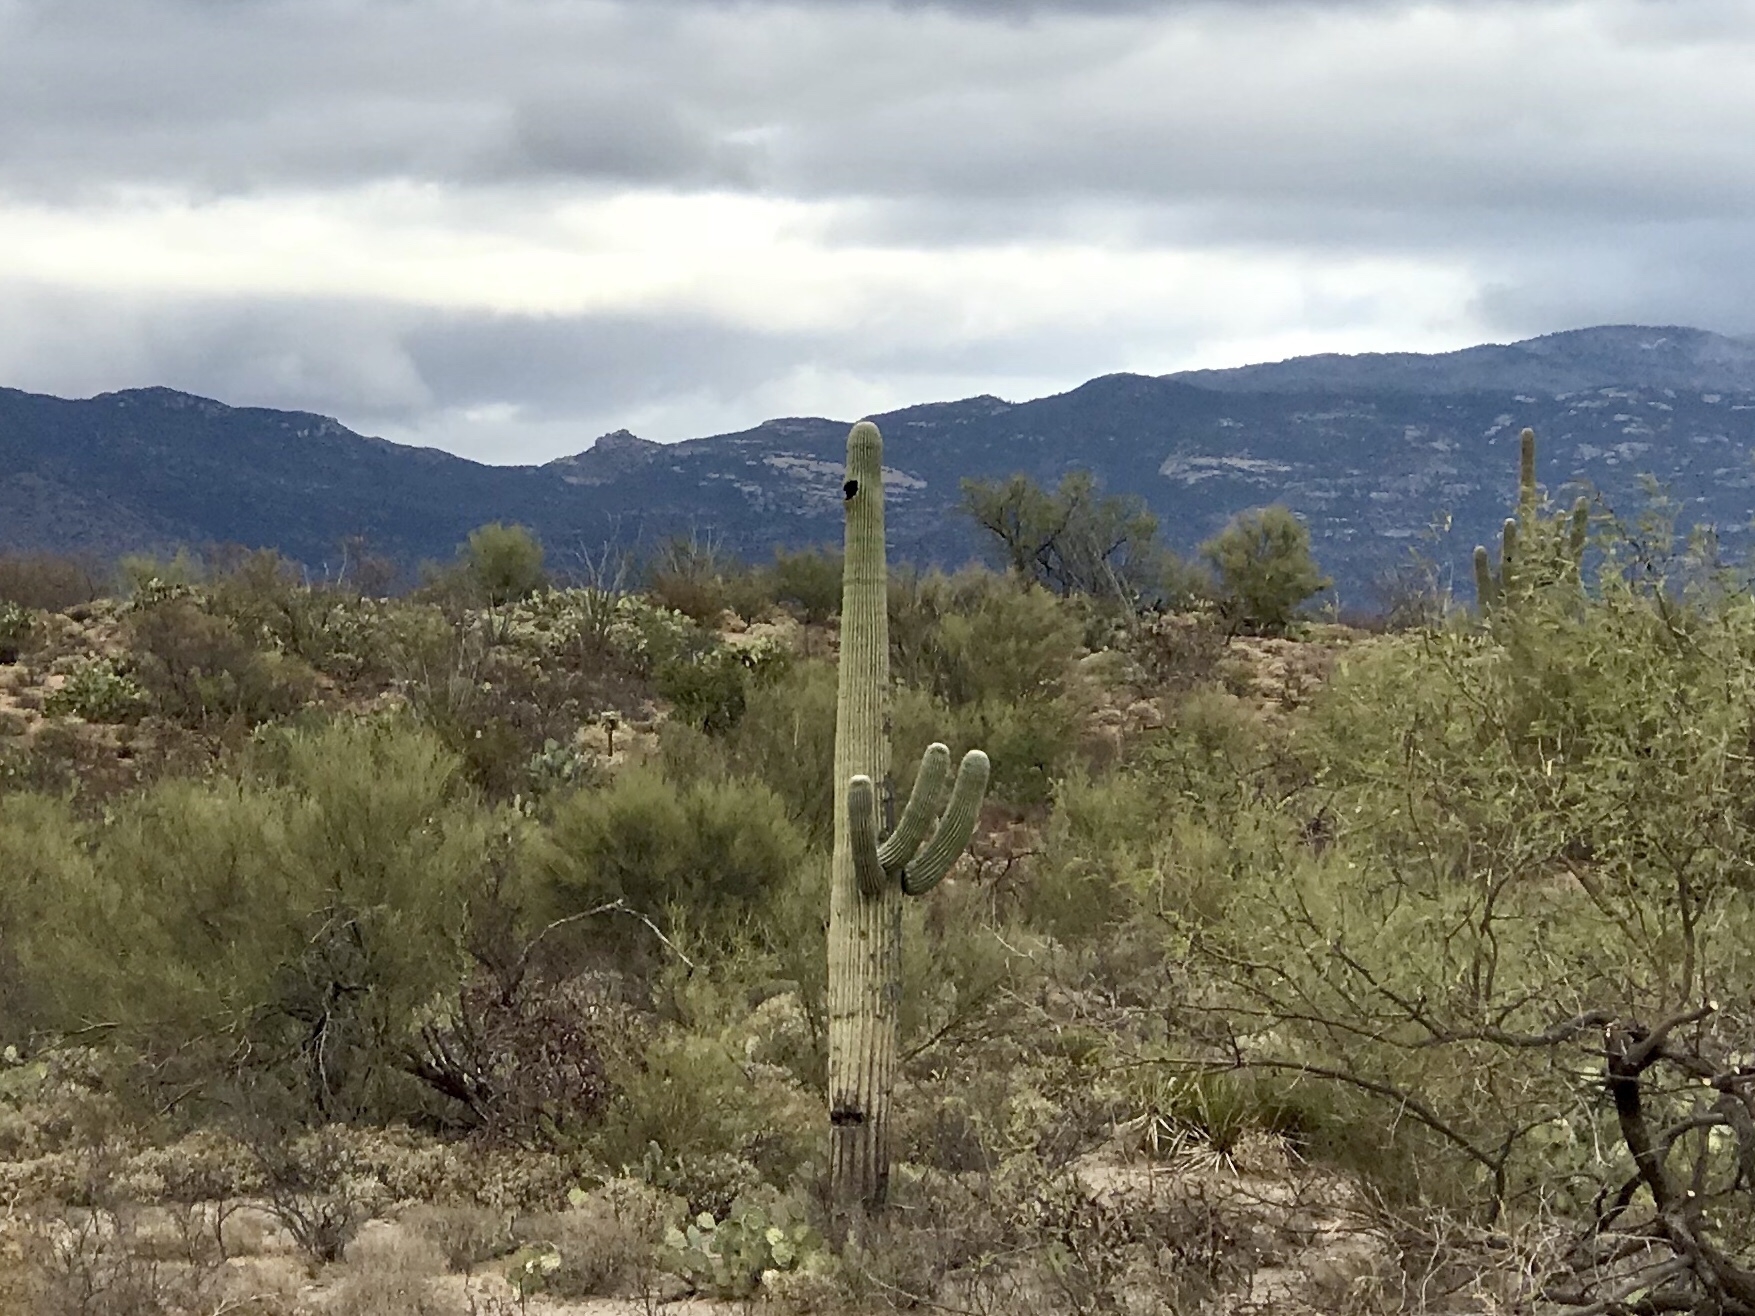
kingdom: Plantae
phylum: Tracheophyta
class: Magnoliopsida
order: Caryophyllales
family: Cactaceae
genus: Carnegiea
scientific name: Carnegiea gigantea
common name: Saguaro
